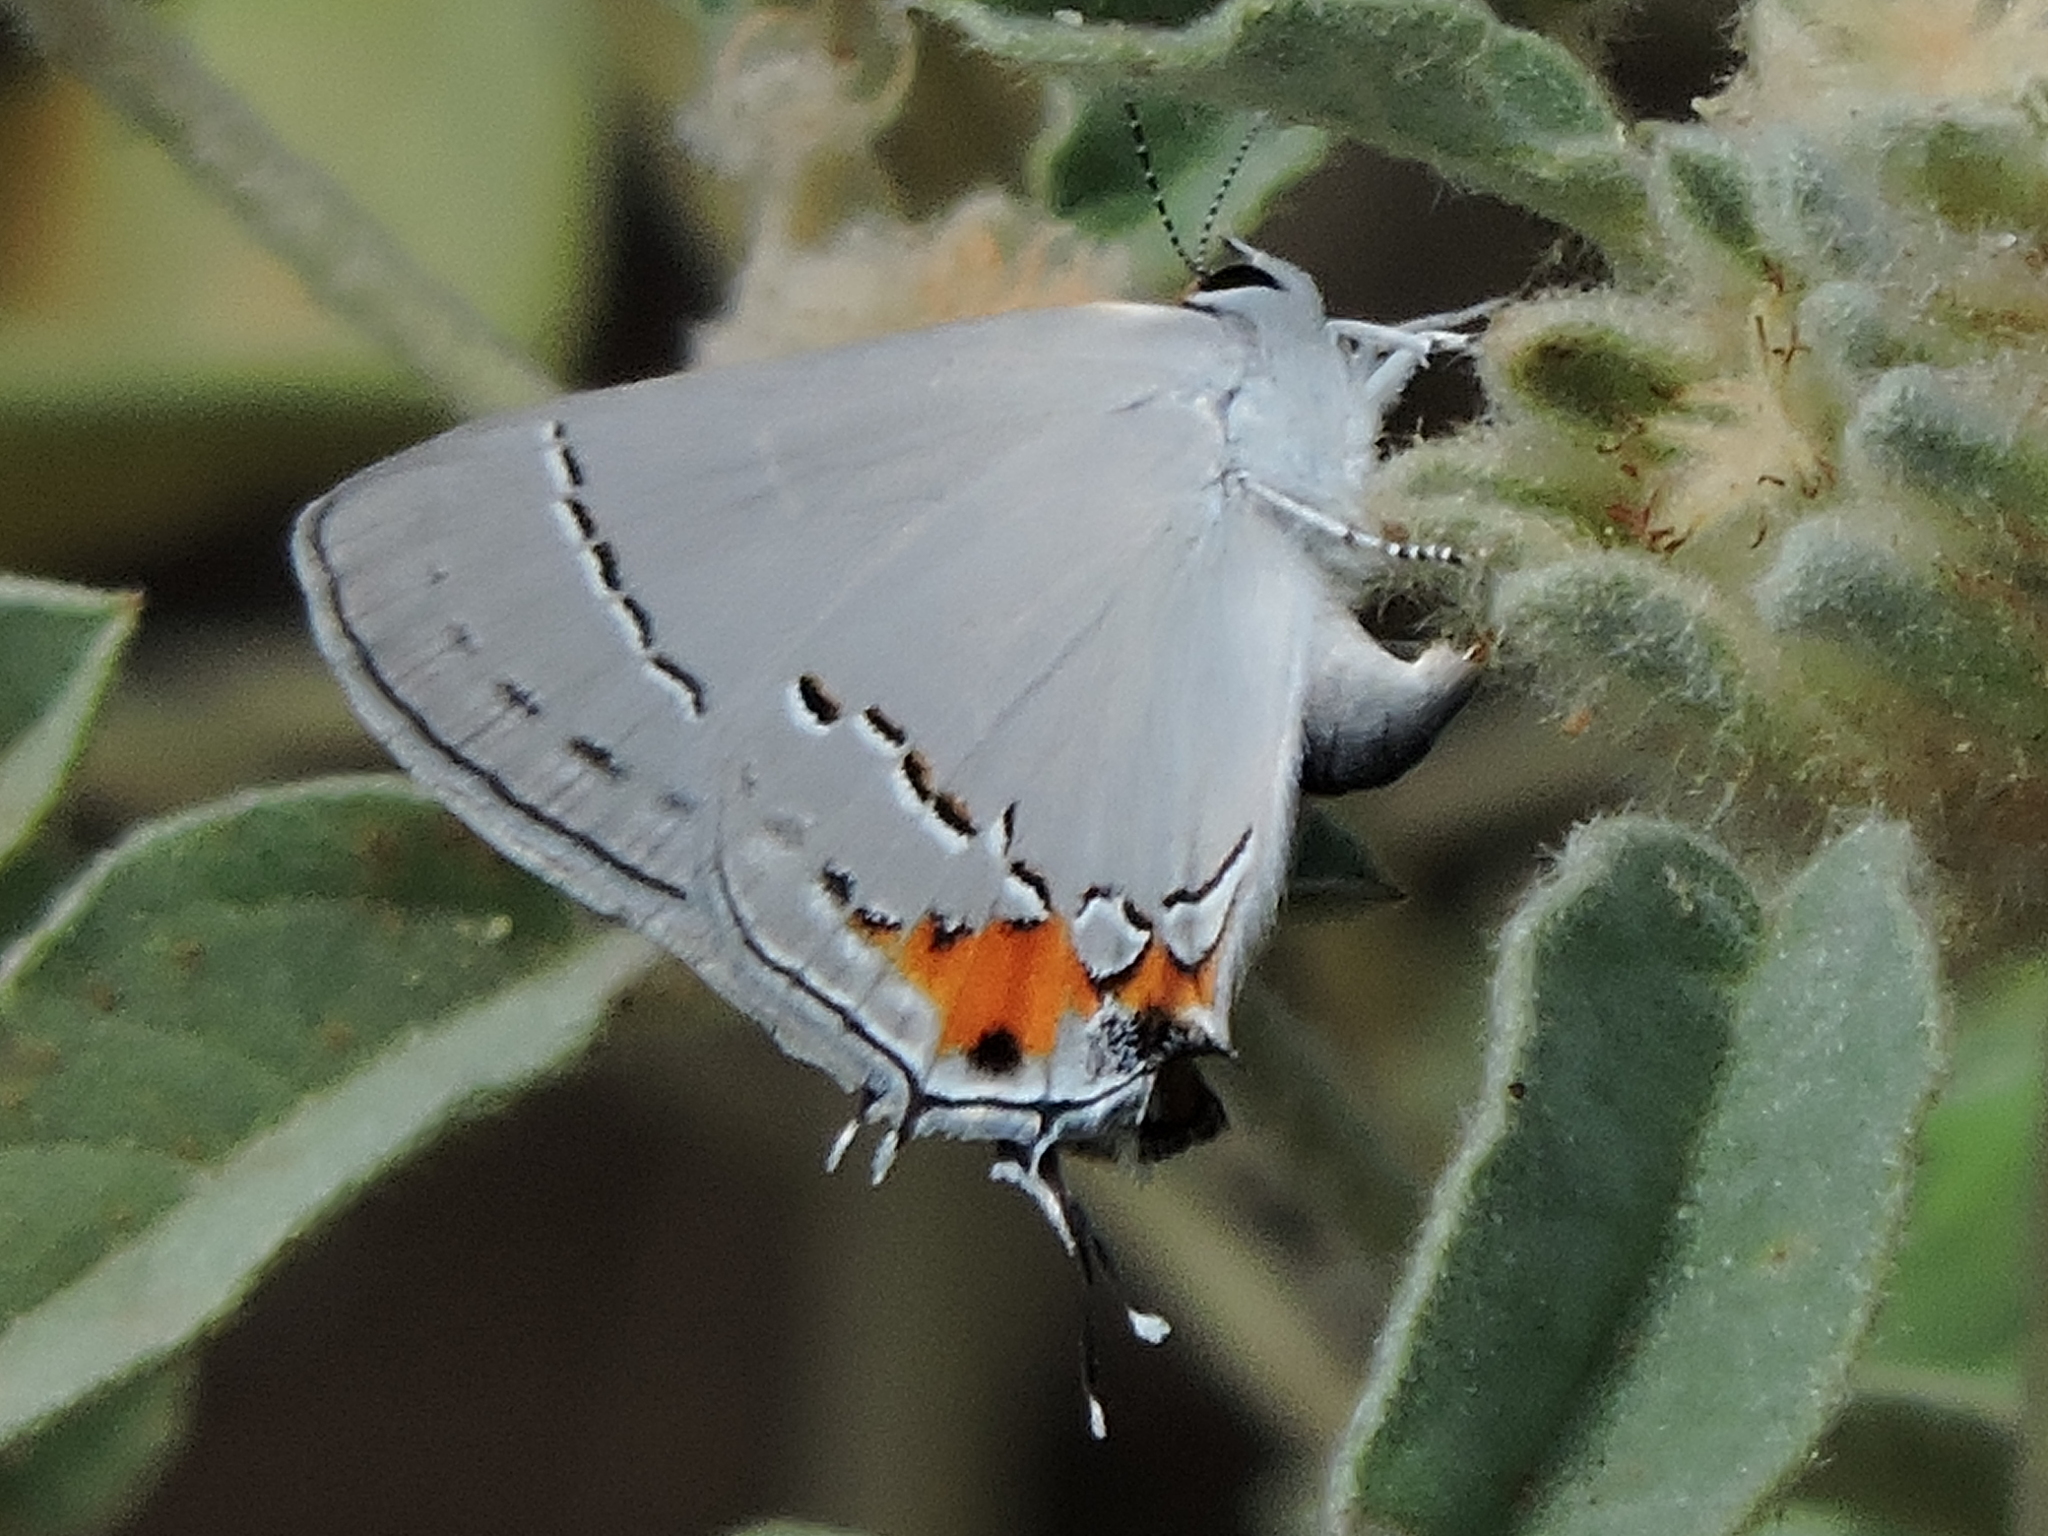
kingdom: Animalia
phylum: Arthropoda
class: Insecta
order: Lepidoptera
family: Lycaenidae
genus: Strymon
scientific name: Strymon melinus
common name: Gray hairstreak
